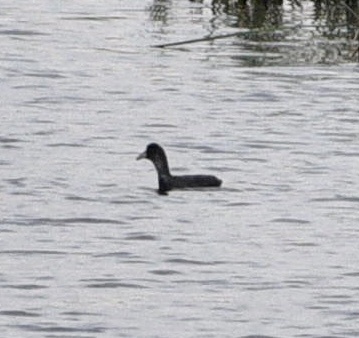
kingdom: Animalia
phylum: Chordata
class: Aves
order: Gruiformes
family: Rallidae
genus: Fulica
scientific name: Fulica atra
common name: Eurasian coot
